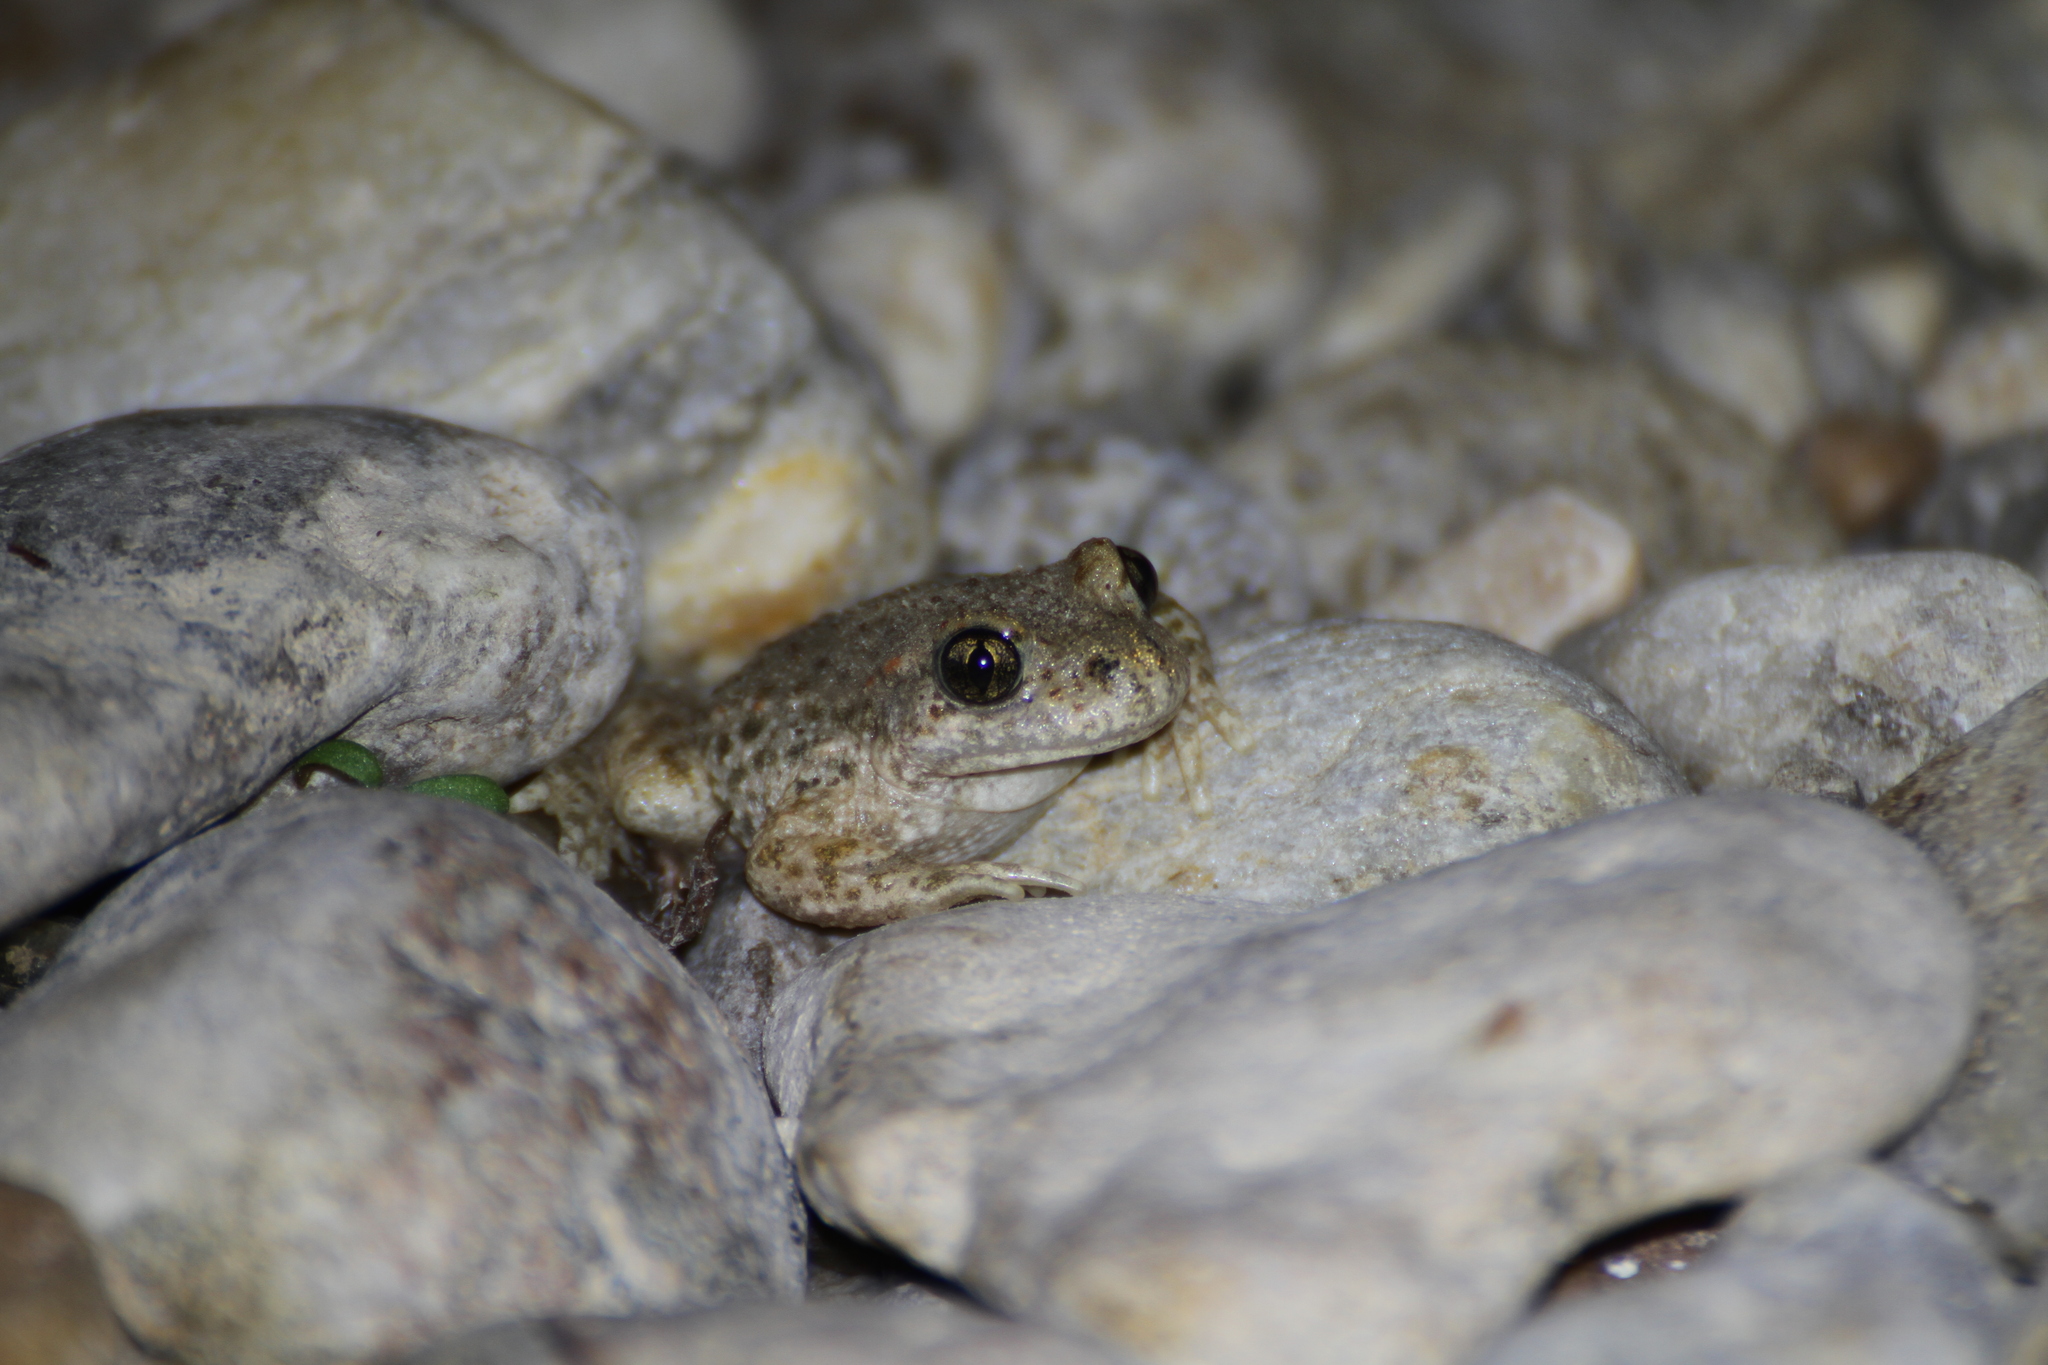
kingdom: Animalia
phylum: Chordata
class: Amphibia
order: Anura
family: Alytidae
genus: Alytes
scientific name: Alytes obstetricans
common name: Midwife toad
